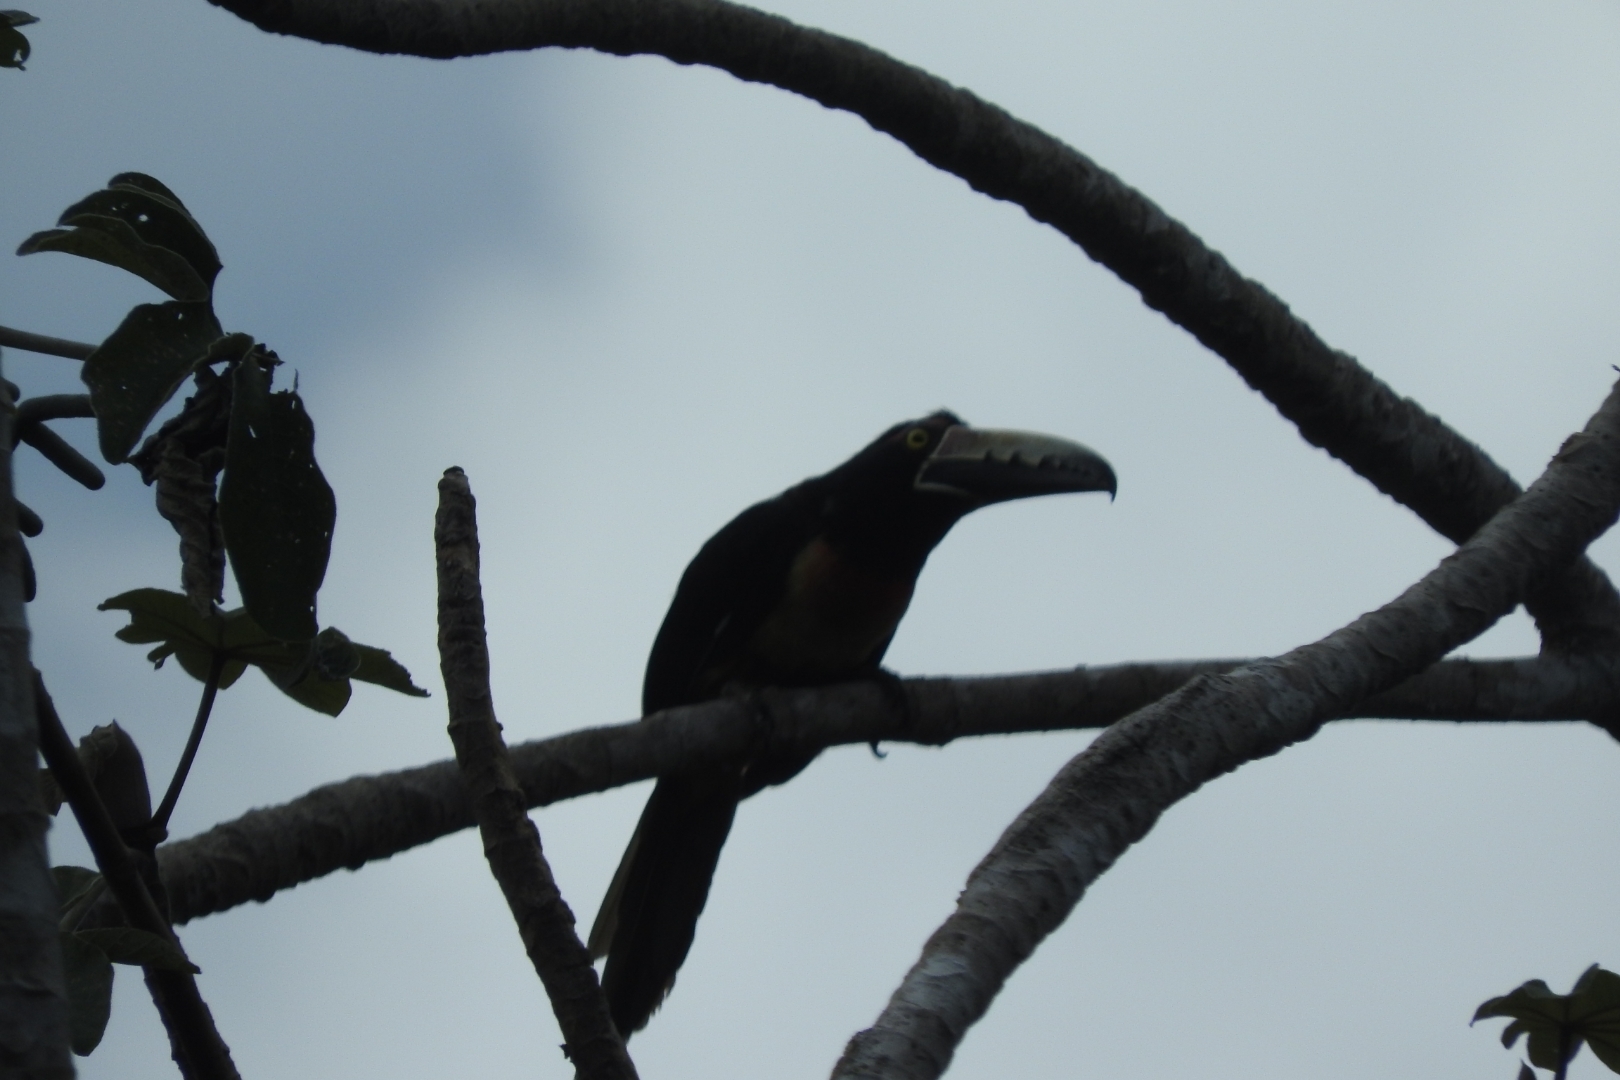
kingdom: Animalia
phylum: Chordata
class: Aves
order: Piciformes
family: Ramphastidae
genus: Pteroglossus
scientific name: Pteroglossus torquatus
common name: Collared aracari
